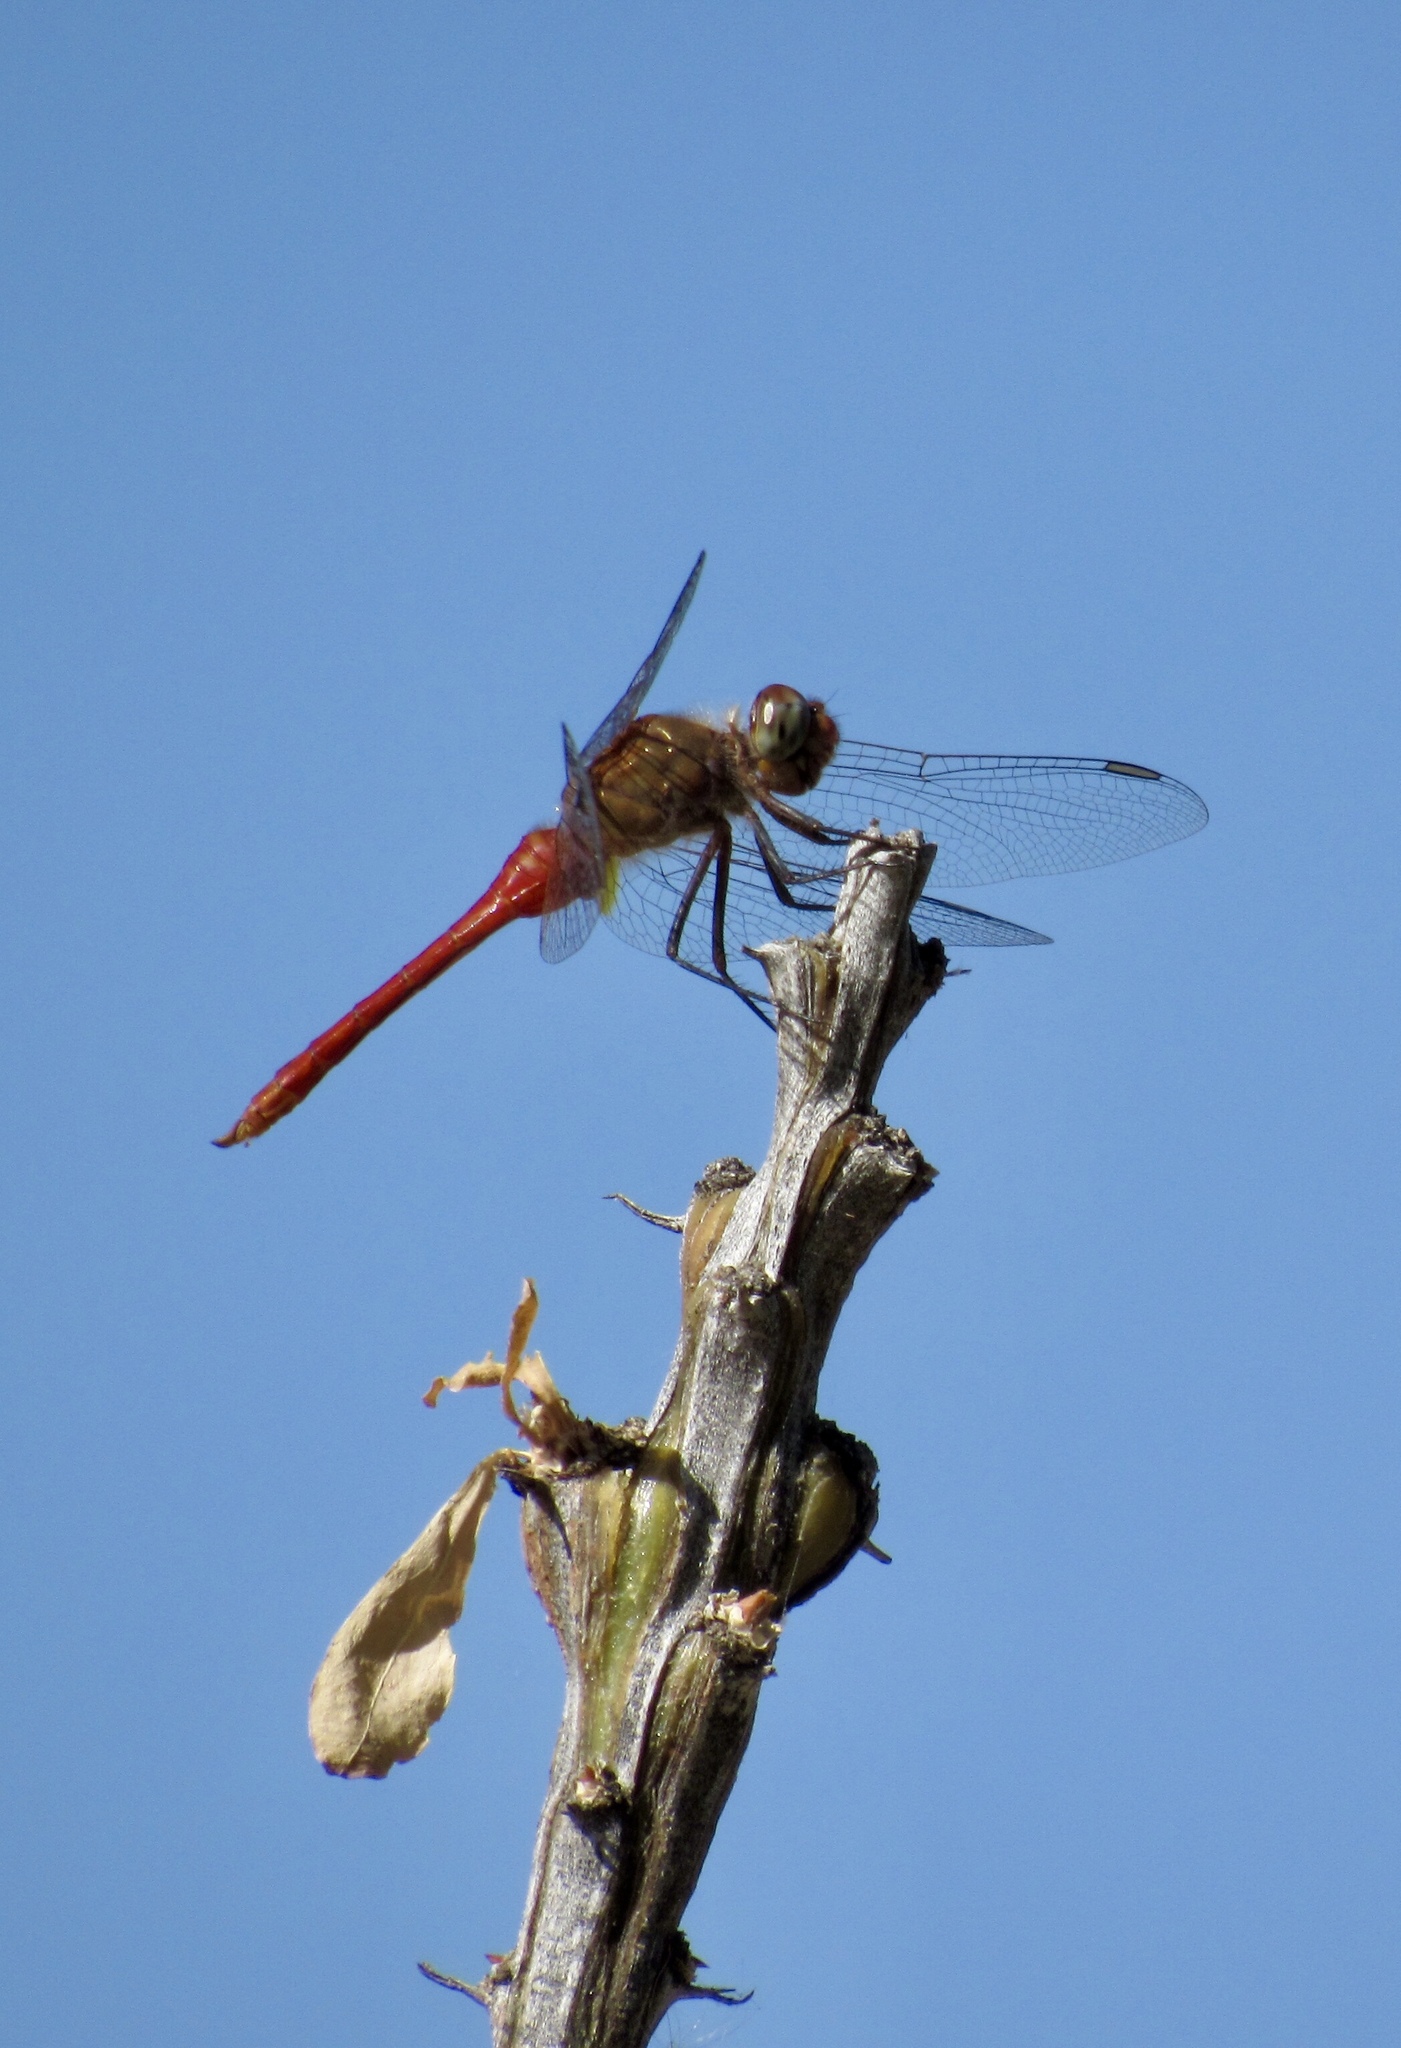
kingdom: Animalia
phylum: Arthropoda
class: Insecta
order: Odonata
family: Libellulidae
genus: Brachymesia
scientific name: Brachymesia furcata
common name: Red-taled pennant
